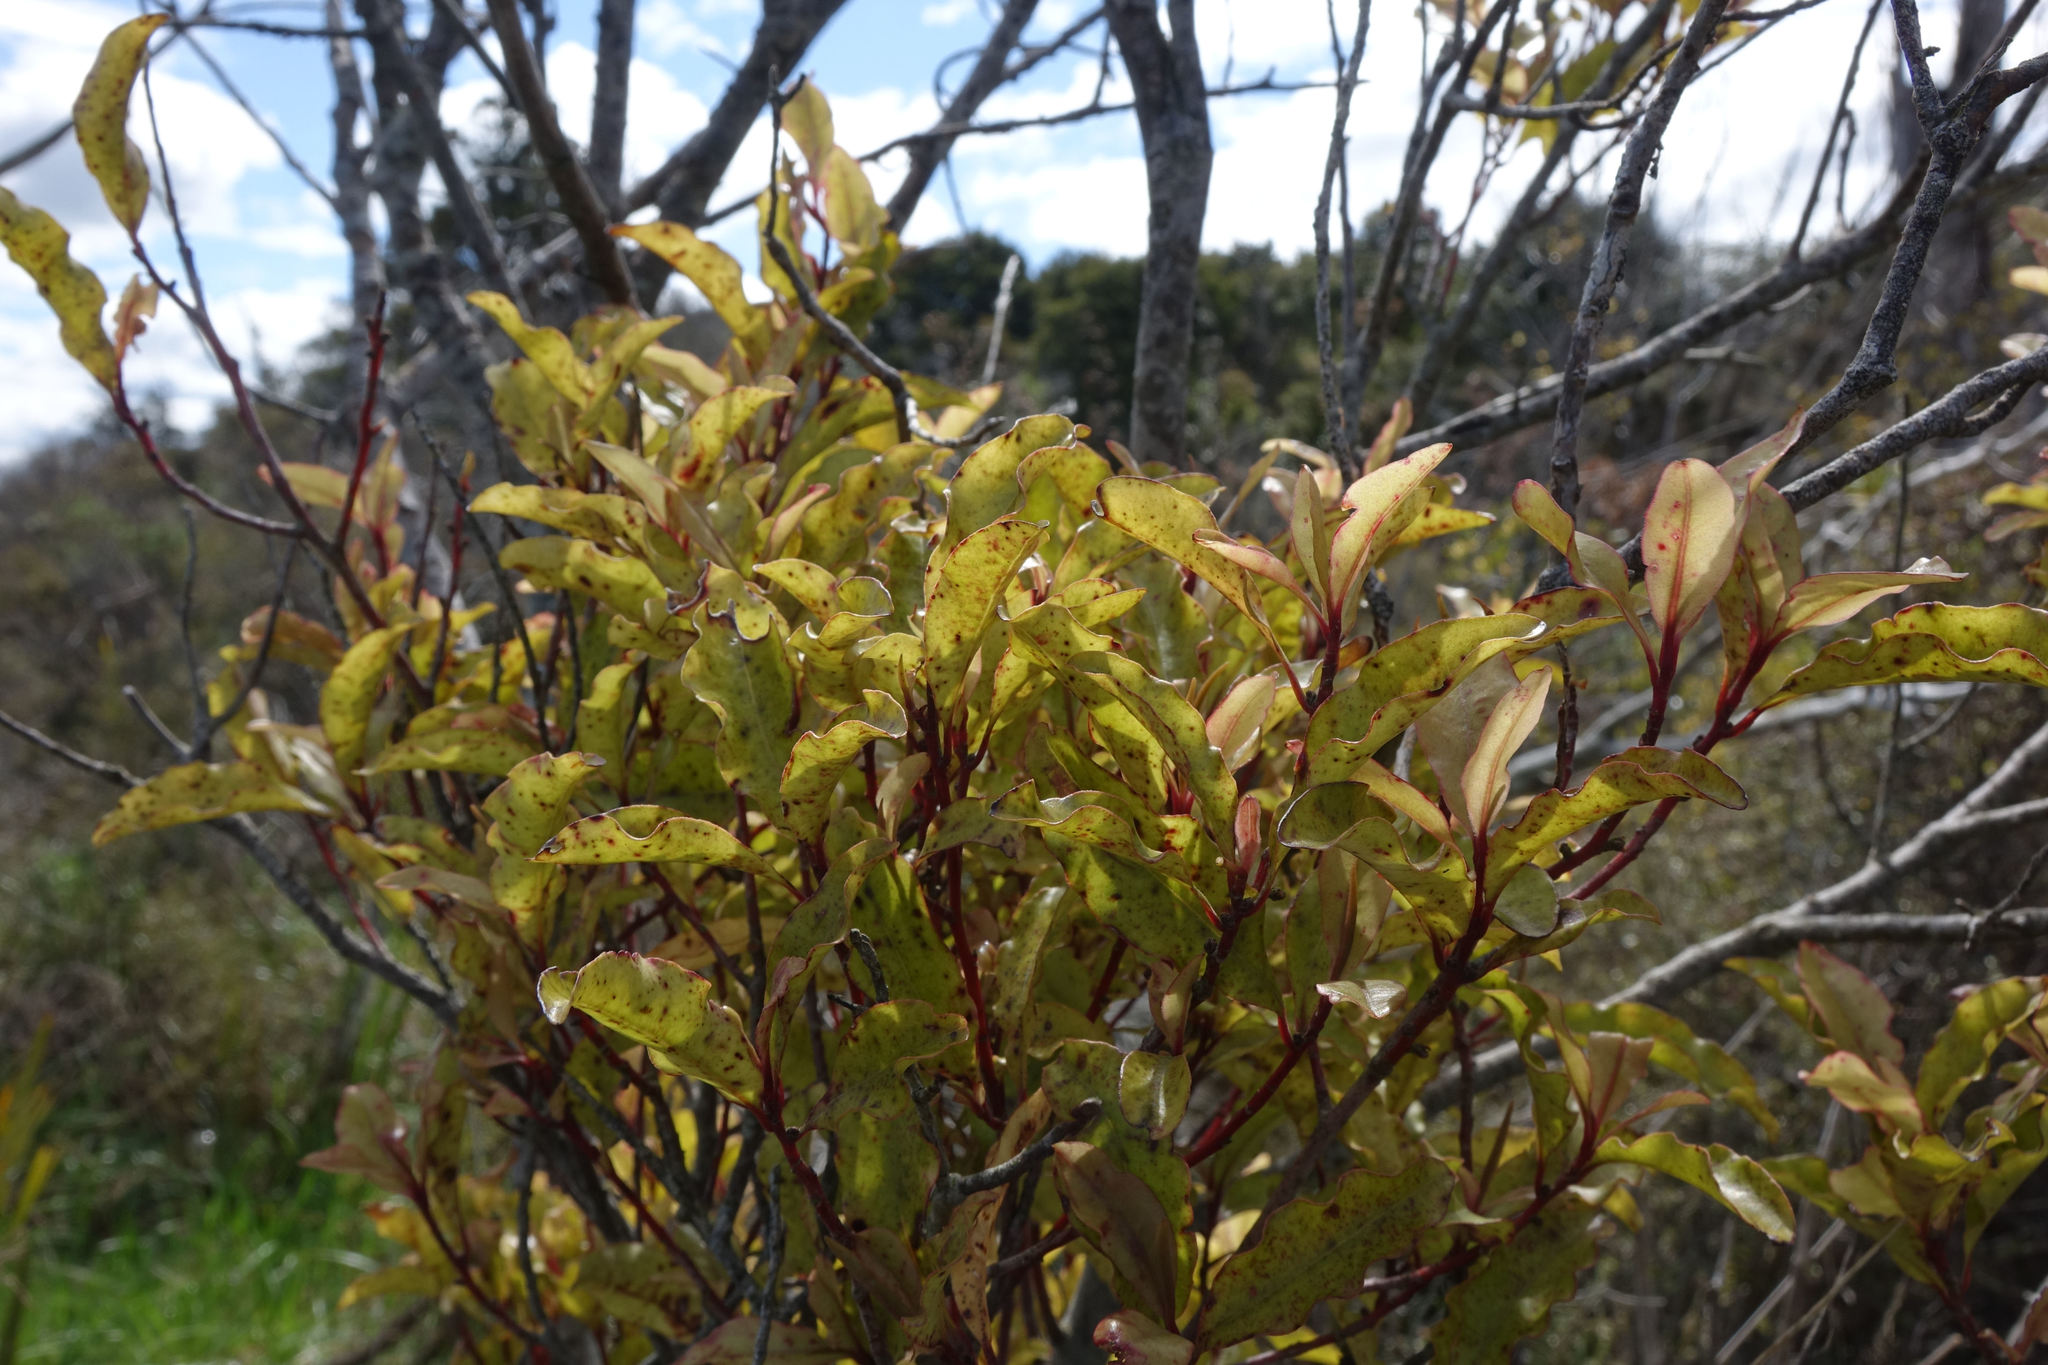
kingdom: Plantae
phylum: Tracheophyta
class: Magnoliopsida
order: Ericales
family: Primulaceae
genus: Myrsine
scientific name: Myrsine australis
